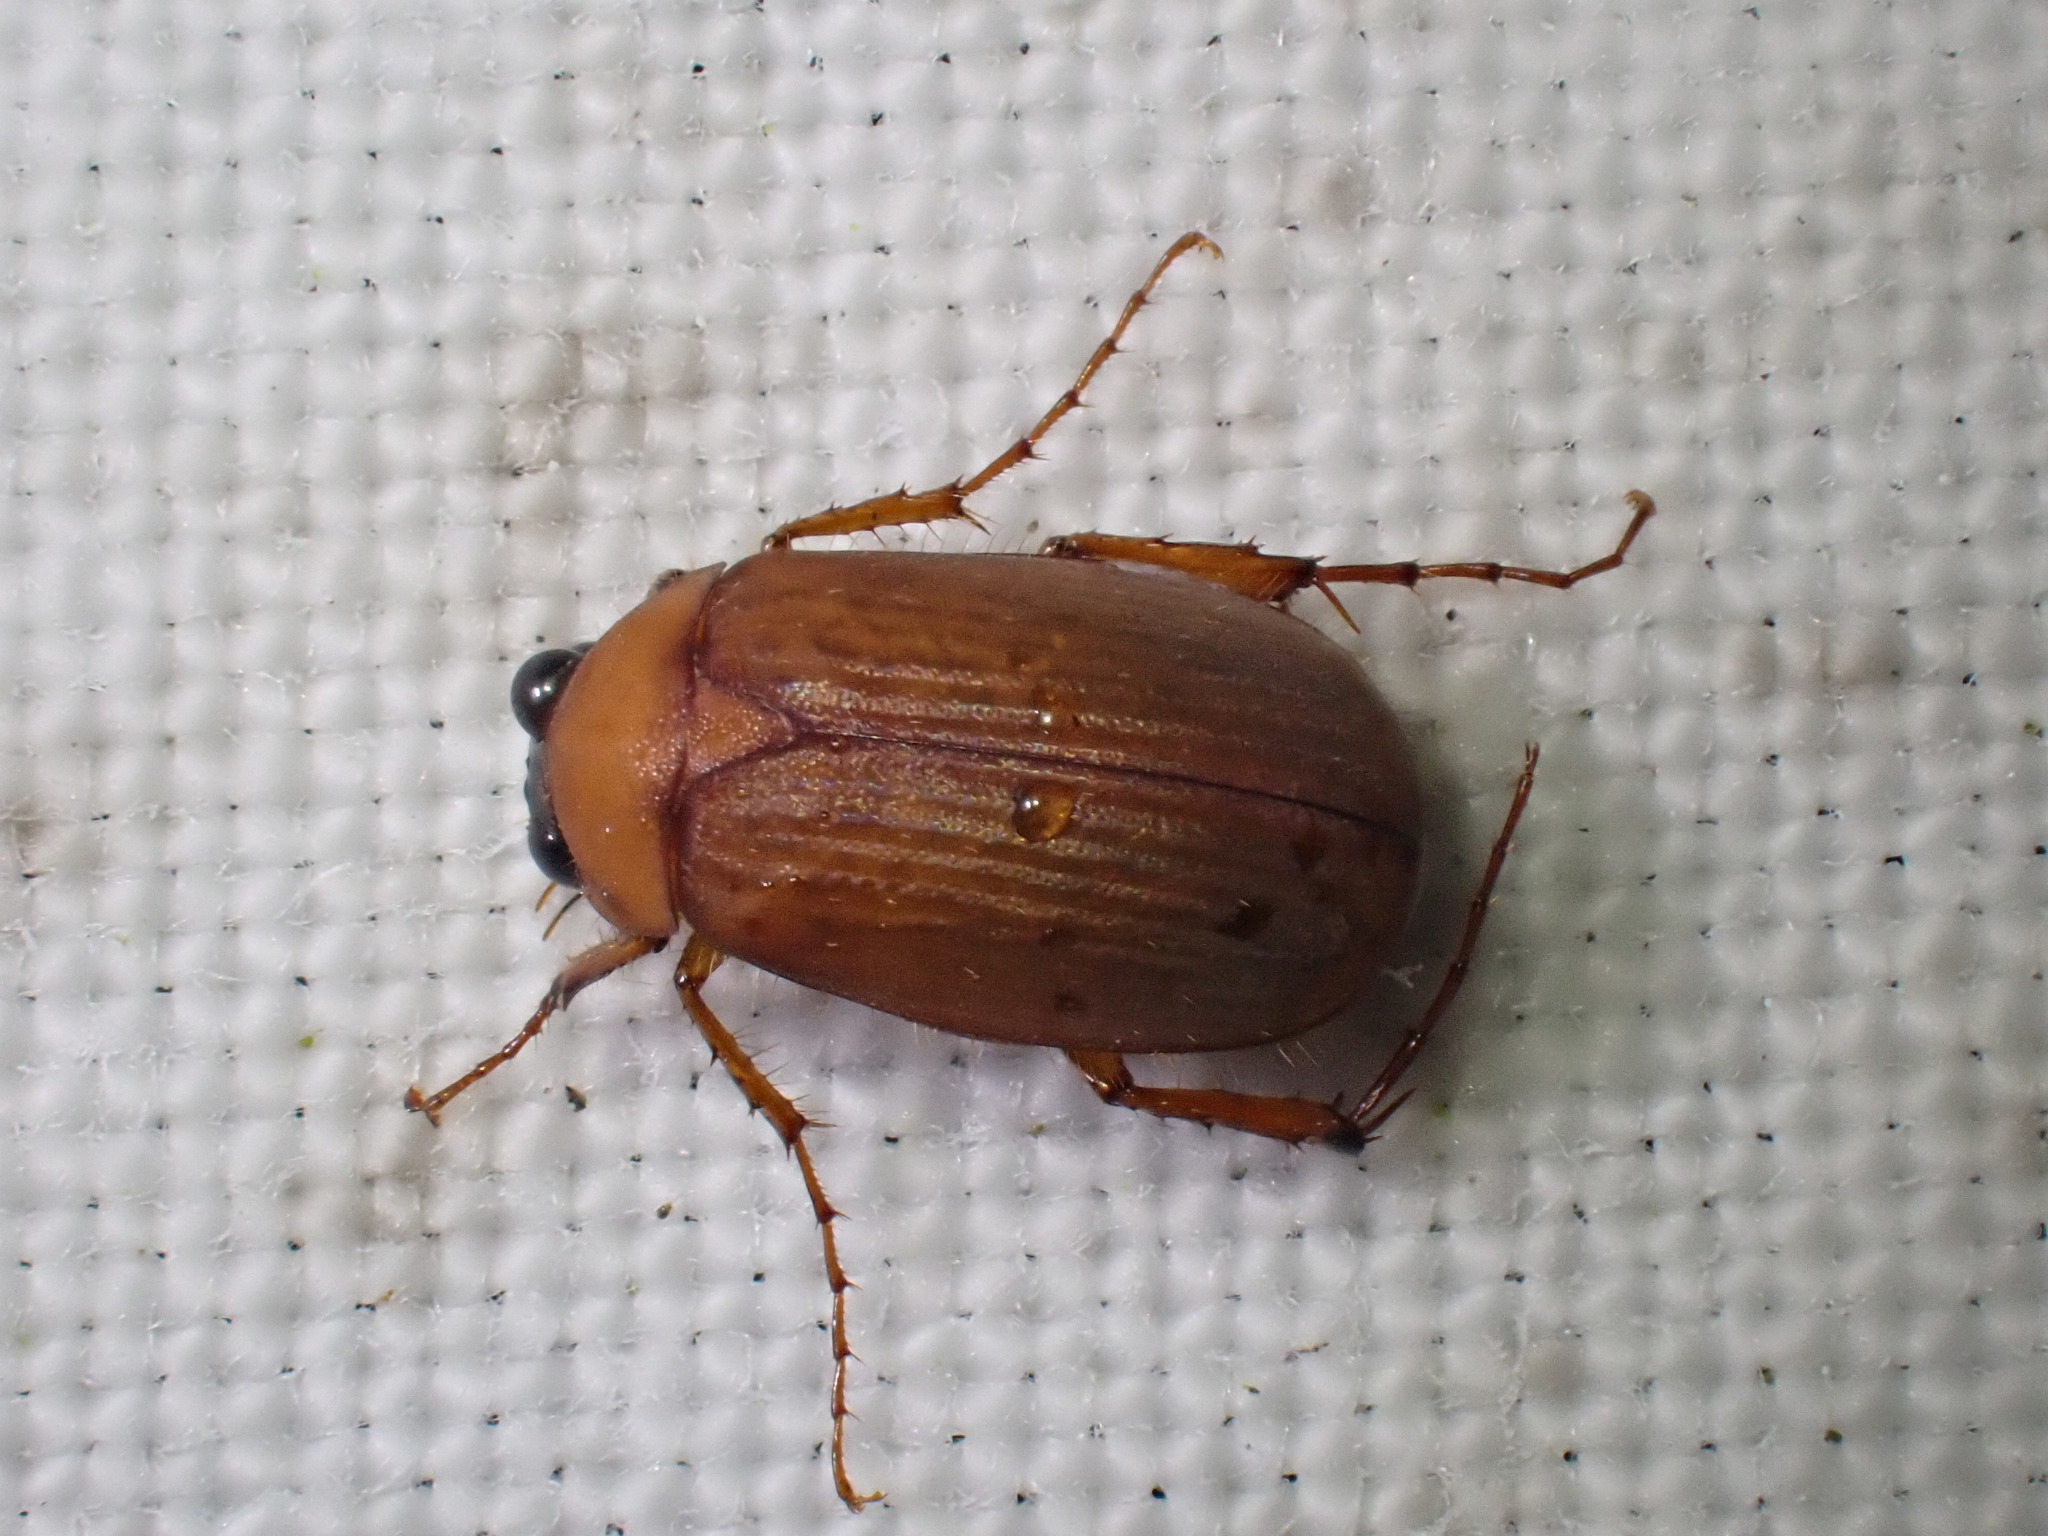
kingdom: Animalia
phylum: Arthropoda
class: Insecta
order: Coleoptera
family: Scarabaeidae
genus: Serica
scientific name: Serica brunnea
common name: Brown chafer
